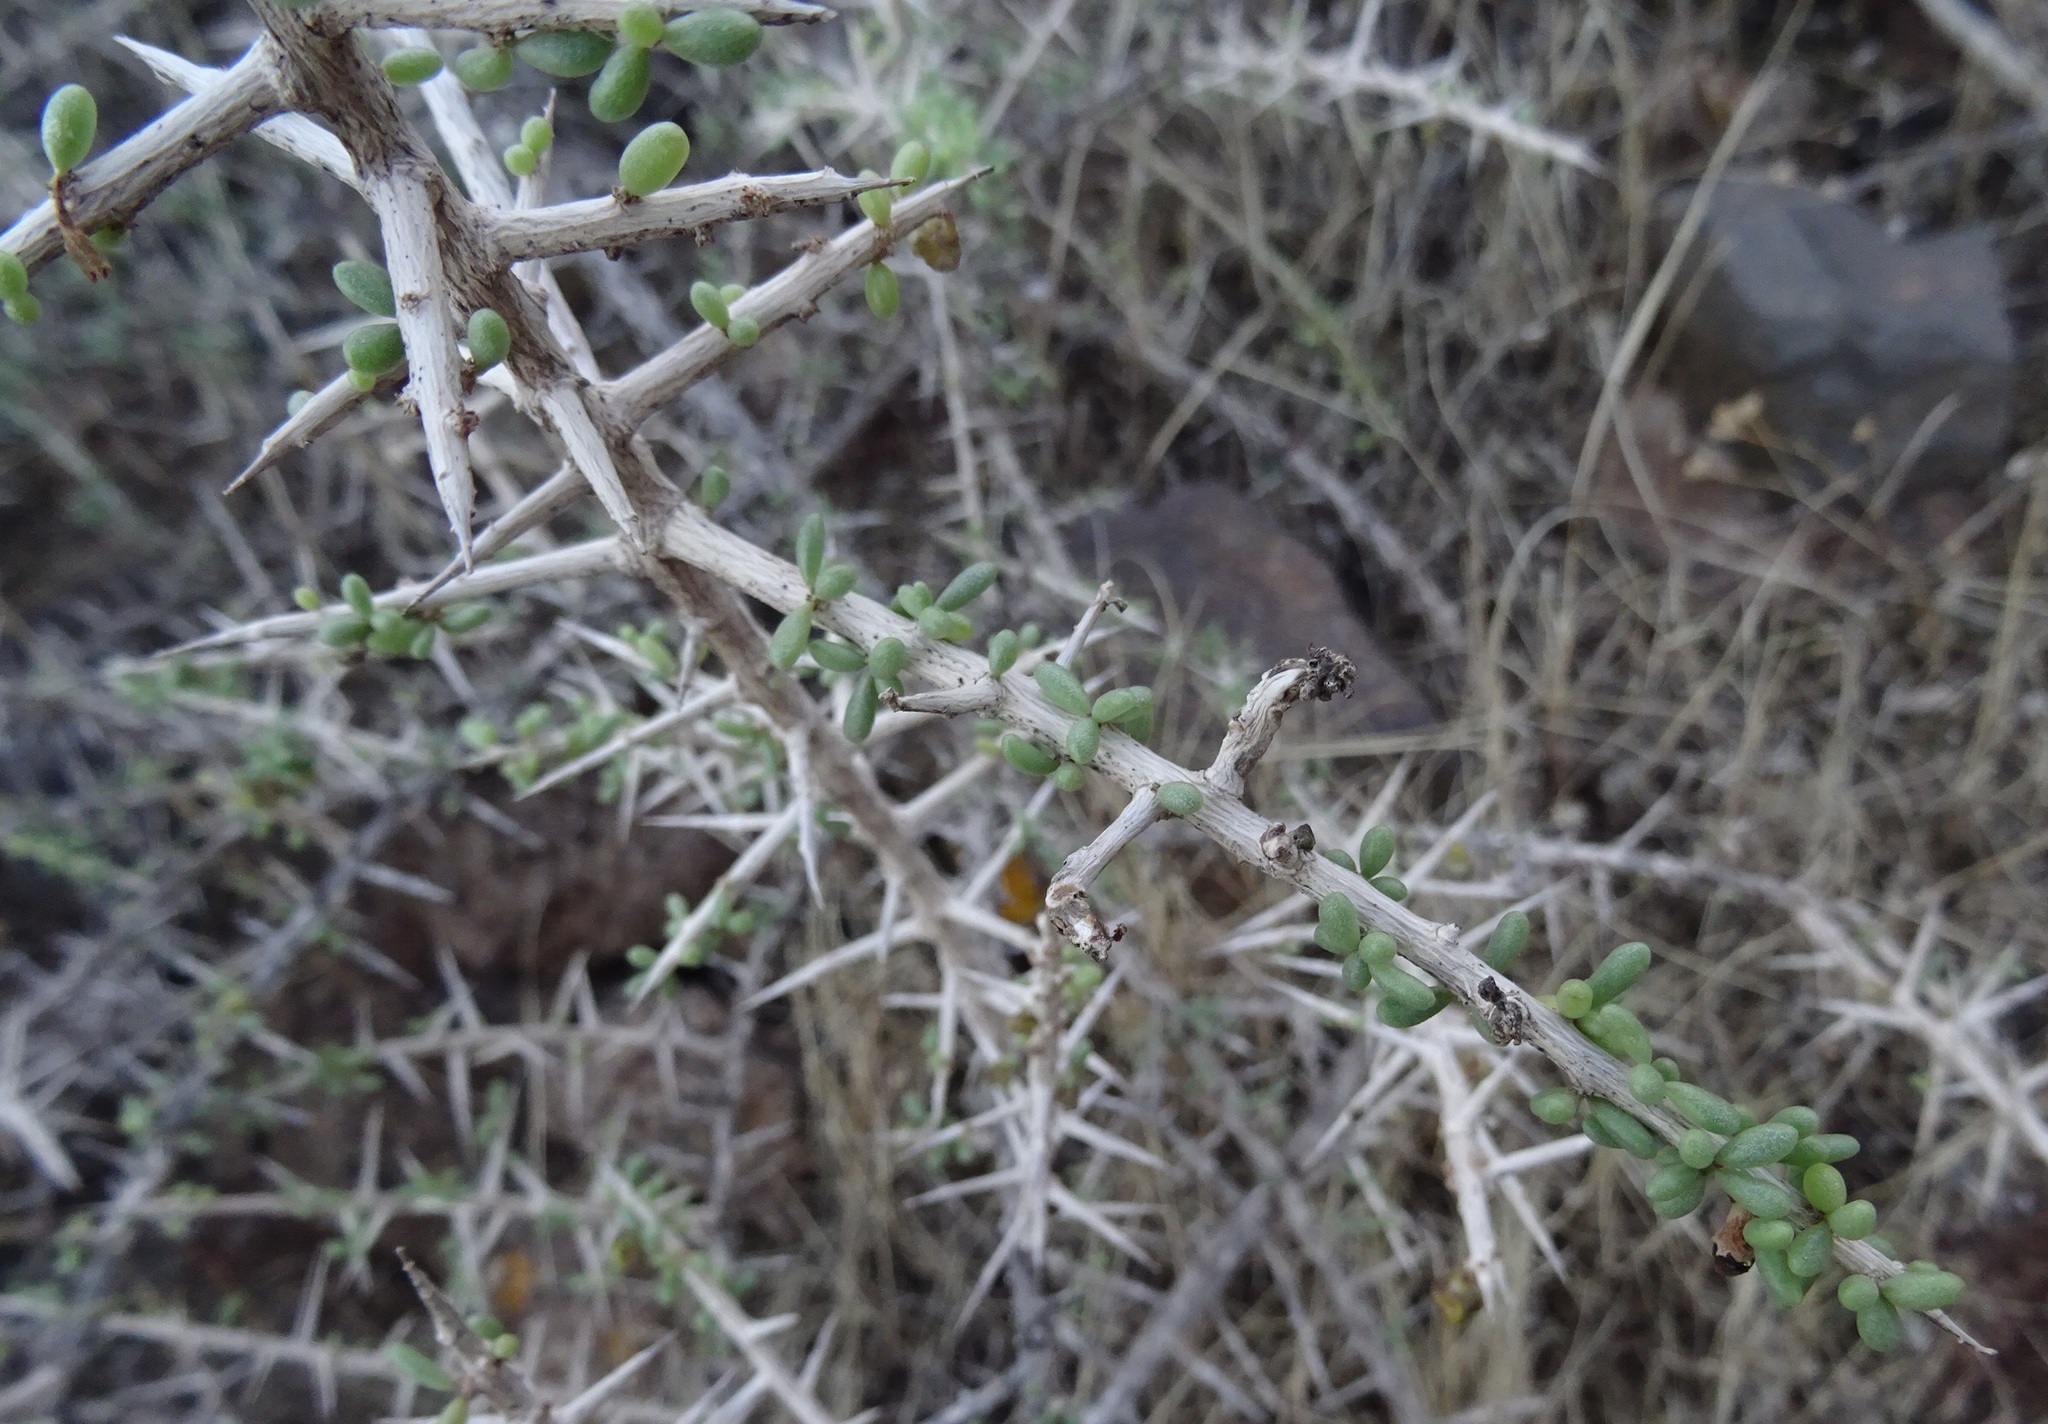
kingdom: Plantae
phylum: Tracheophyta
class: Magnoliopsida
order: Solanales
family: Solanaceae
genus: Lycium
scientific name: Lycium intricatum
